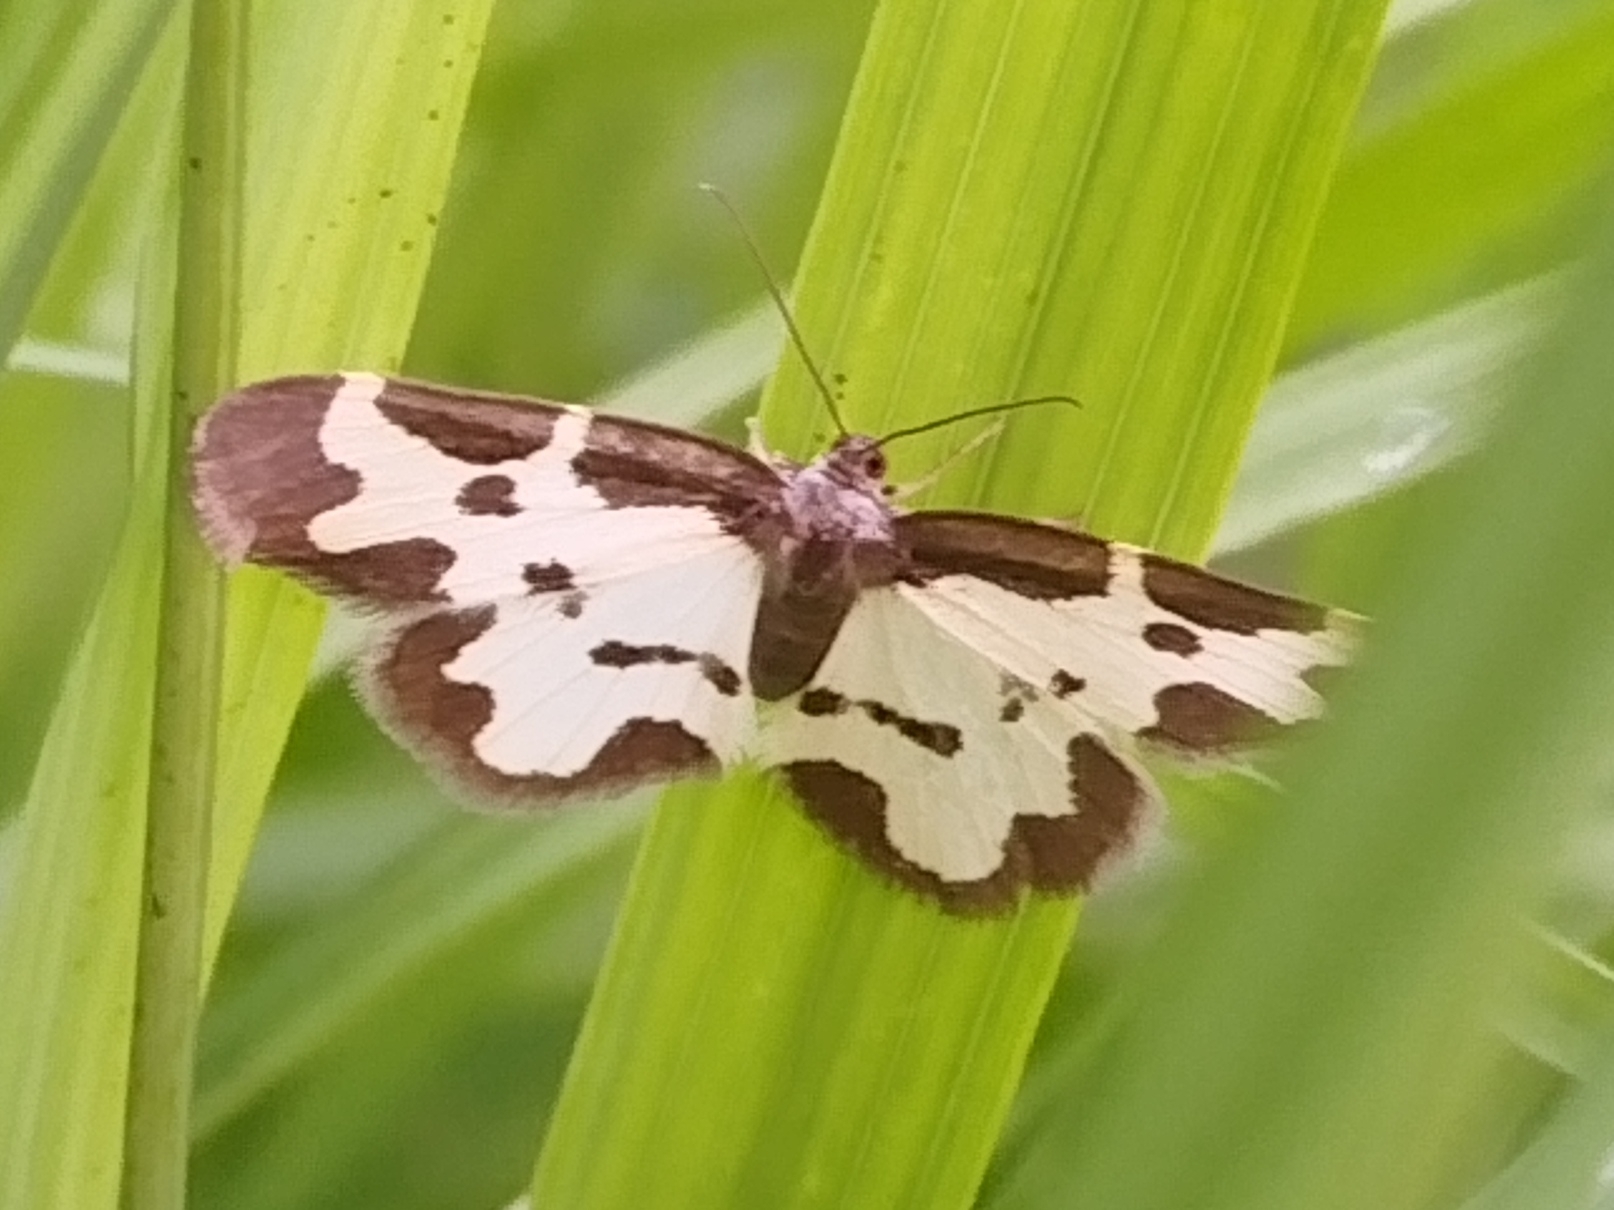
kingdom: Animalia
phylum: Arthropoda
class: Insecta
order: Lepidoptera
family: Geometridae
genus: Lomaspilis
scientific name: Lomaspilis marginata
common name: Clouded border
